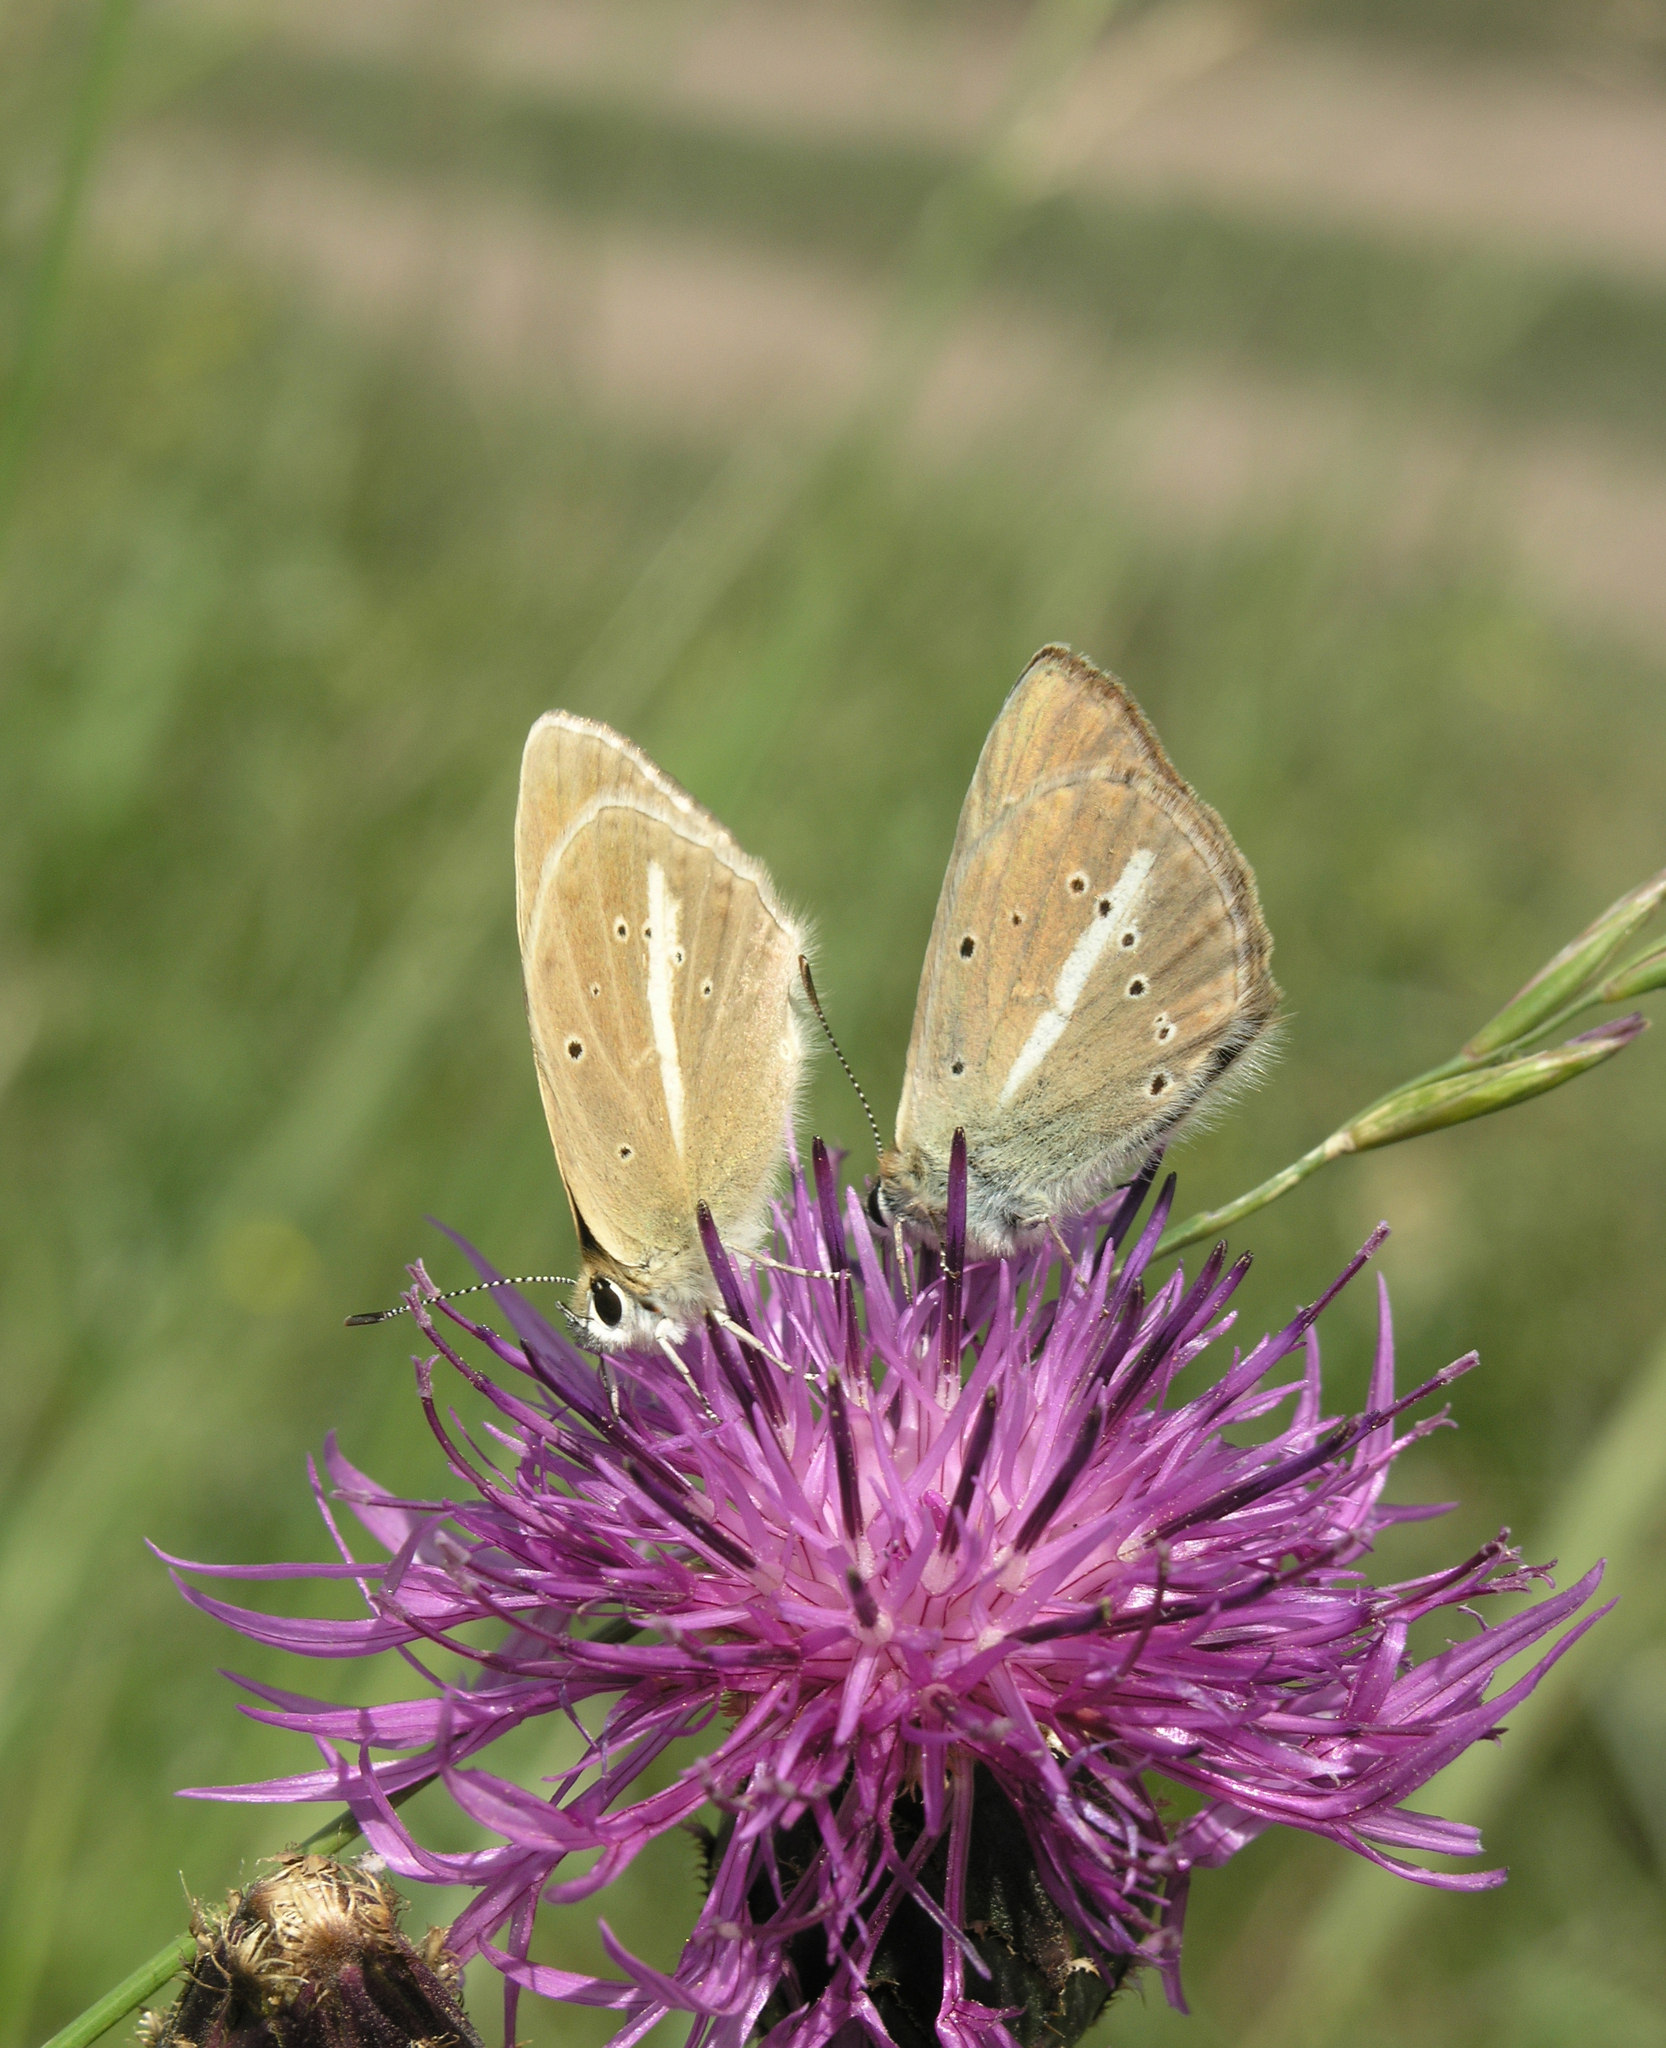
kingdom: Animalia
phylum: Arthropoda
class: Insecta
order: Lepidoptera
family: Lycaenidae
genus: Agrodiaetus
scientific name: Agrodiaetus damon
